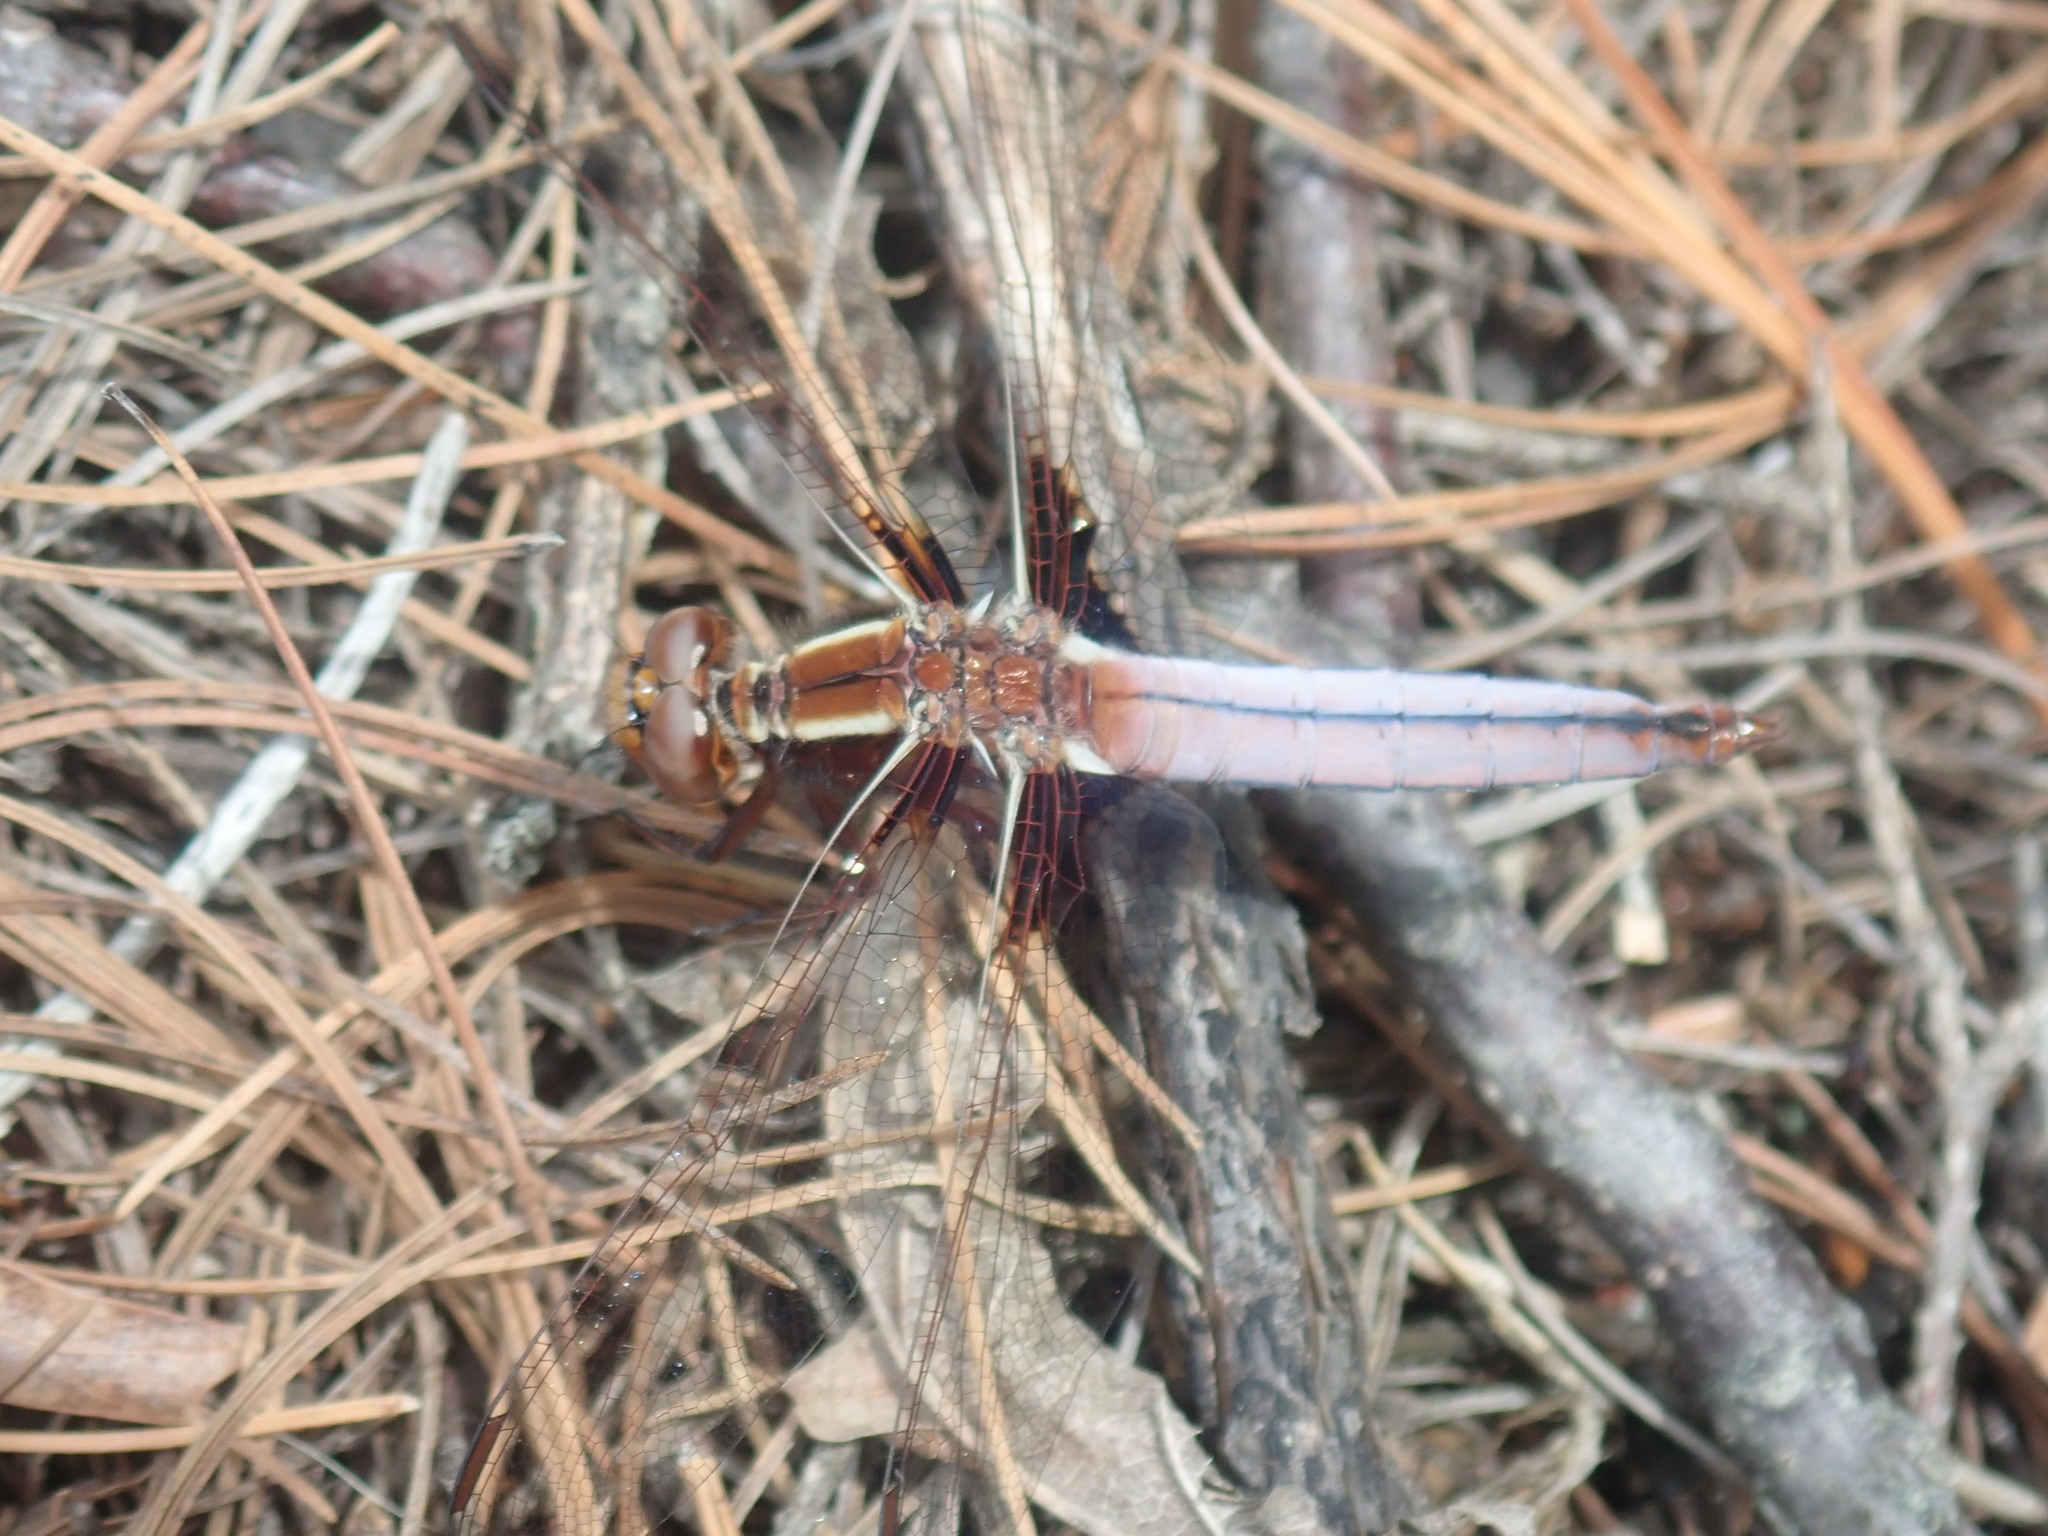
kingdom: Animalia
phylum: Arthropoda
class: Insecta
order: Odonata
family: Libellulidae
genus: Ladona
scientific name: Ladona exusta
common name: Libellule embrasée
